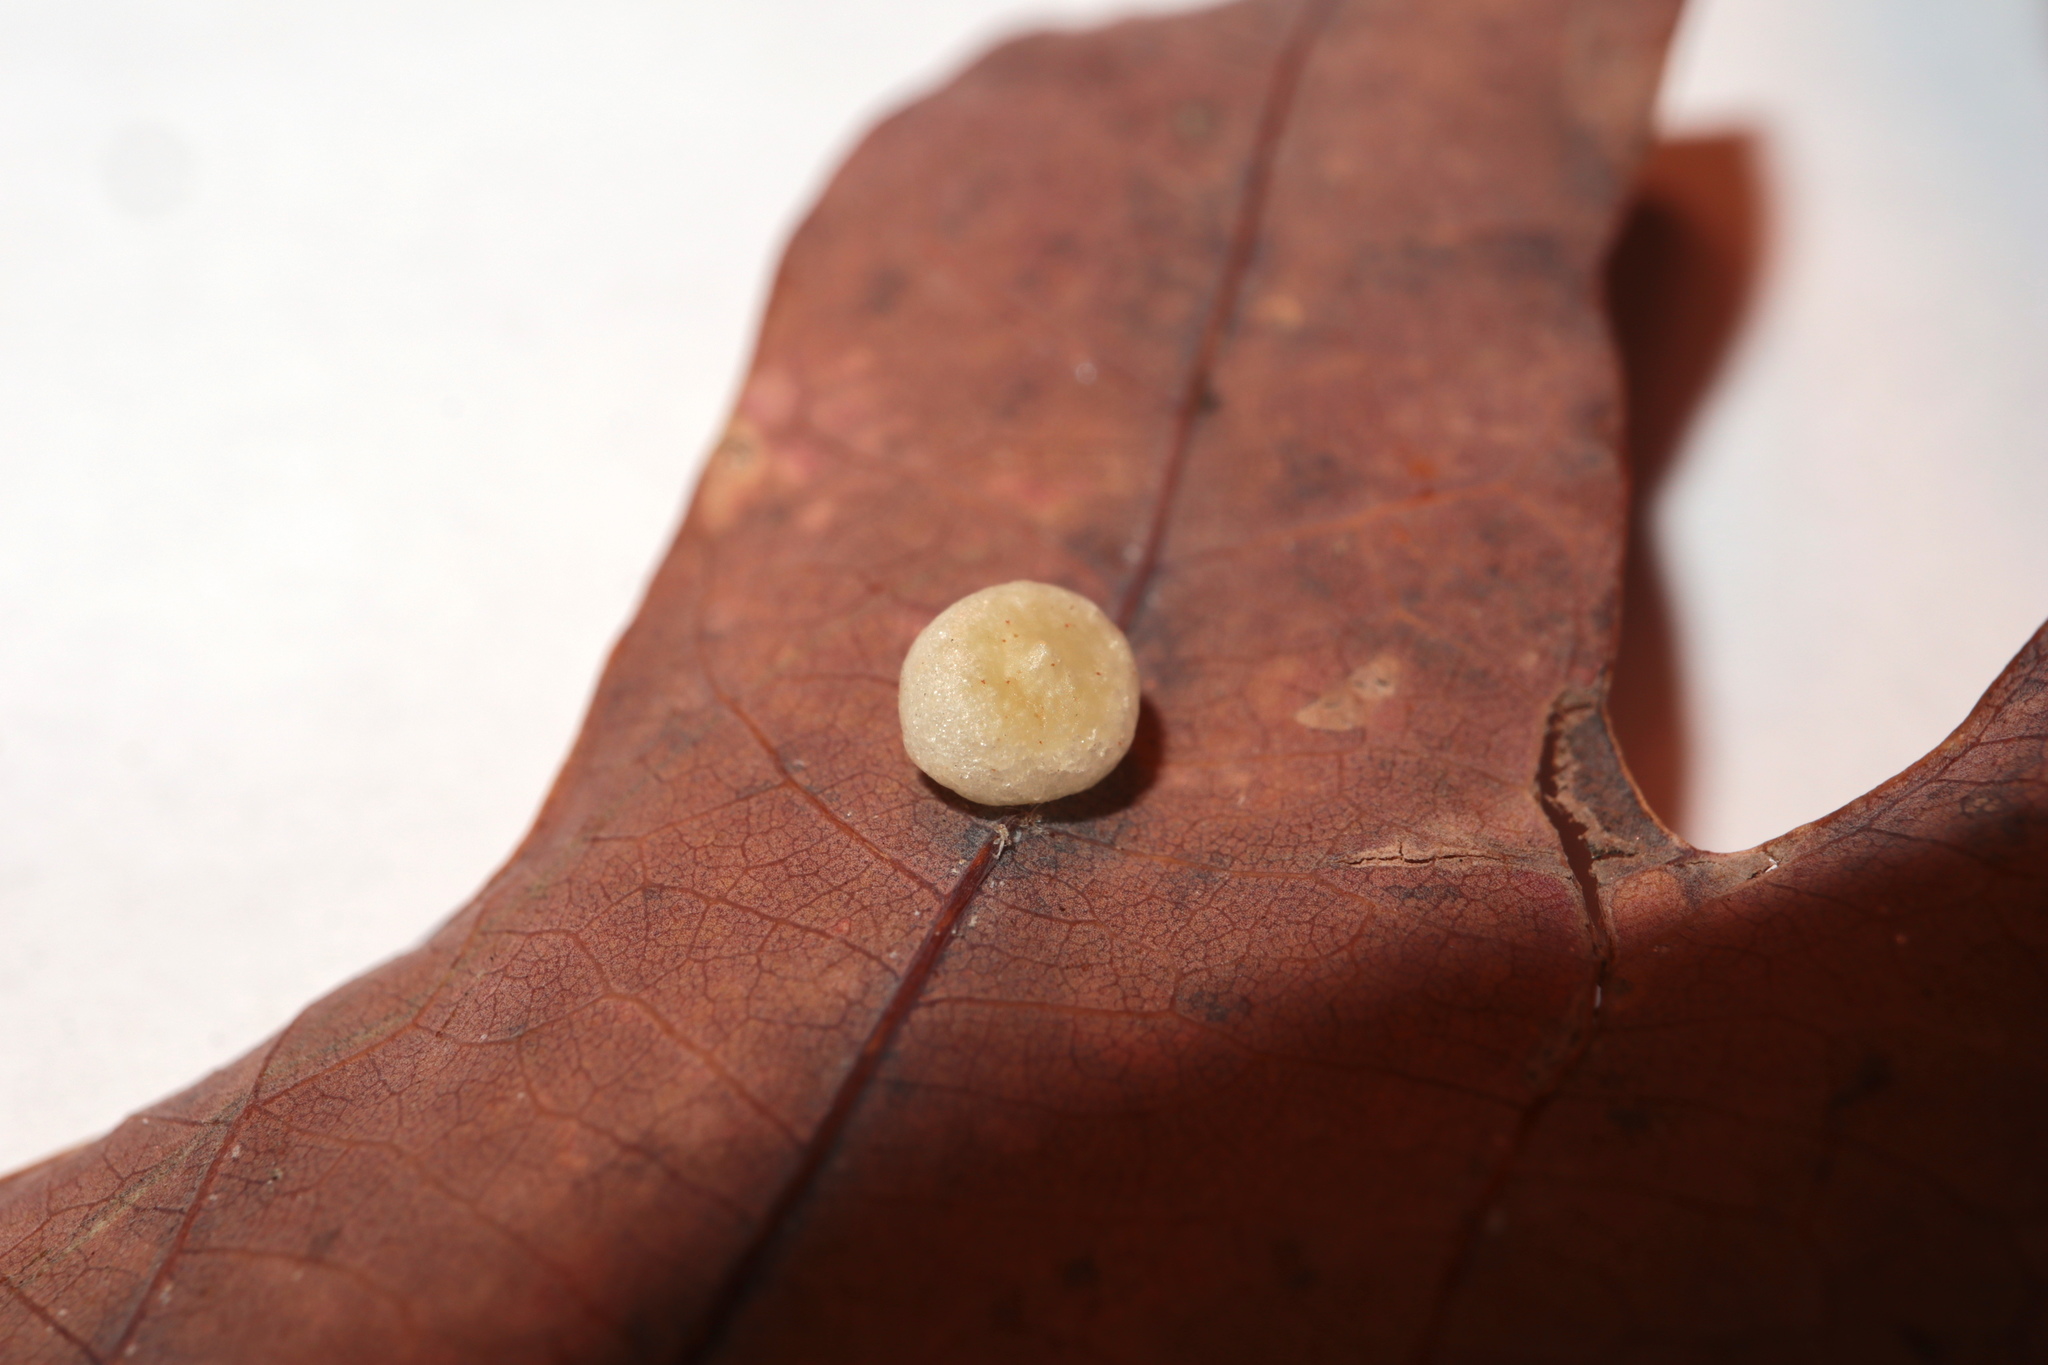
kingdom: Animalia
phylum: Arthropoda
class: Insecta
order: Hymenoptera
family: Cynipidae
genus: Phylloteras
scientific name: Phylloteras
